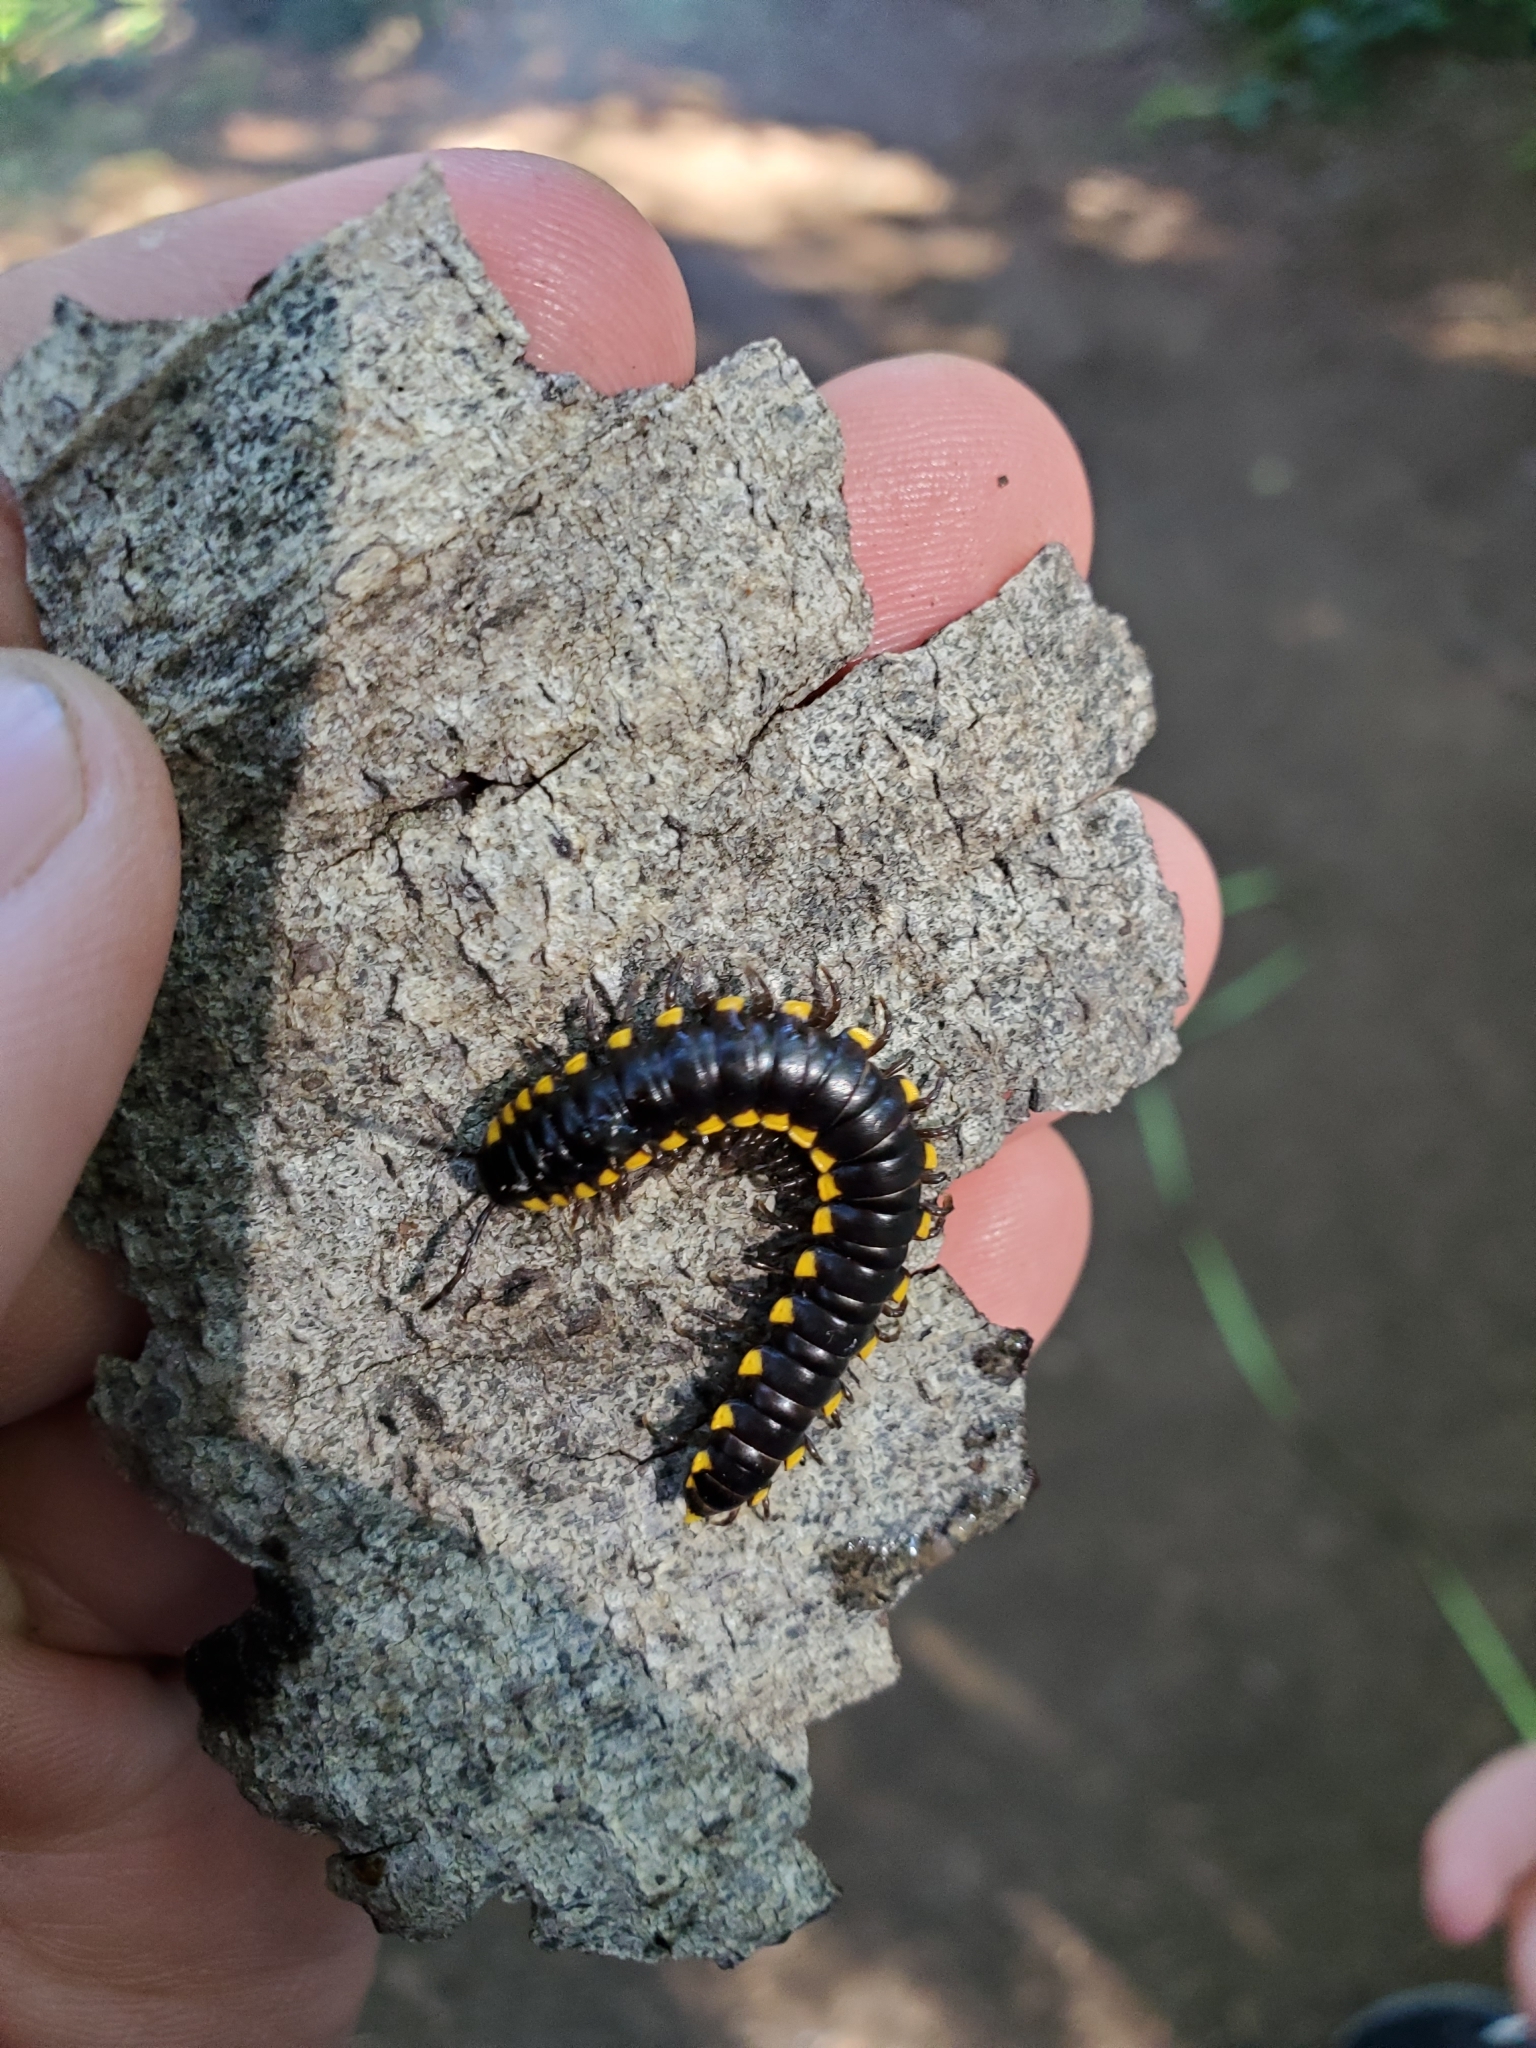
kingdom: Animalia
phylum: Arthropoda
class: Diplopoda
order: Polydesmida
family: Xystodesmidae
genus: Harpaphe
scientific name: Harpaphe haydeniana
